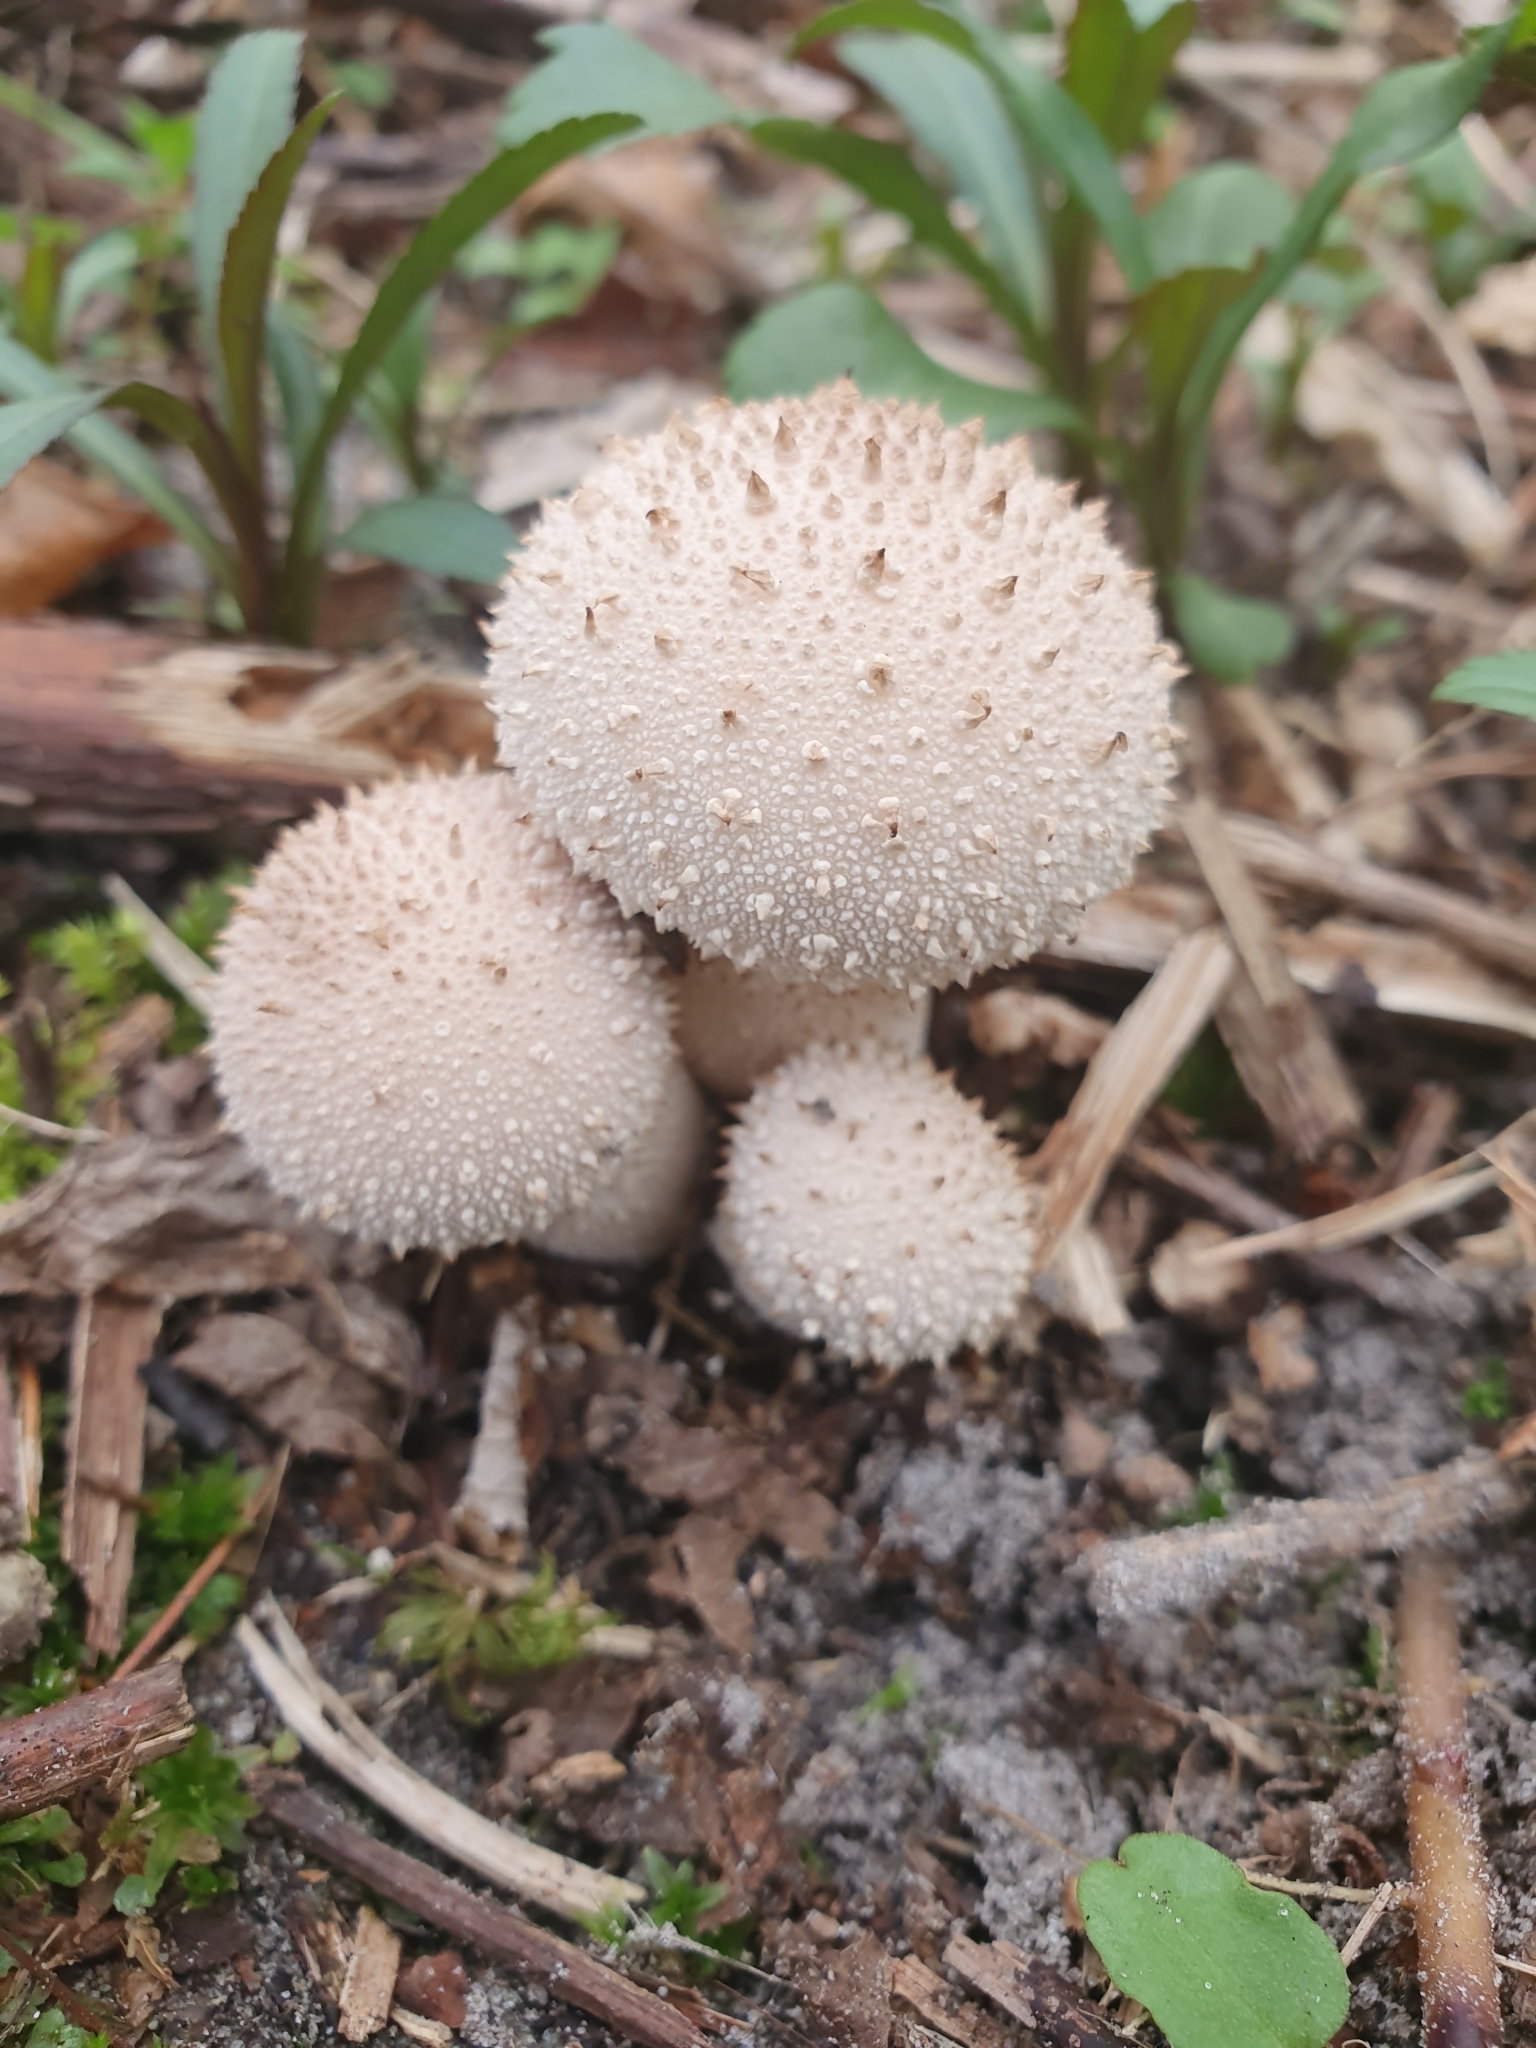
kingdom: Fungi
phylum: Basidiomycota
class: Agaricomycetes
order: Agaricales
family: Lycoperdaceae
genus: Lycoperdon
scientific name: Lycoperdon perlatum
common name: Common puffball
